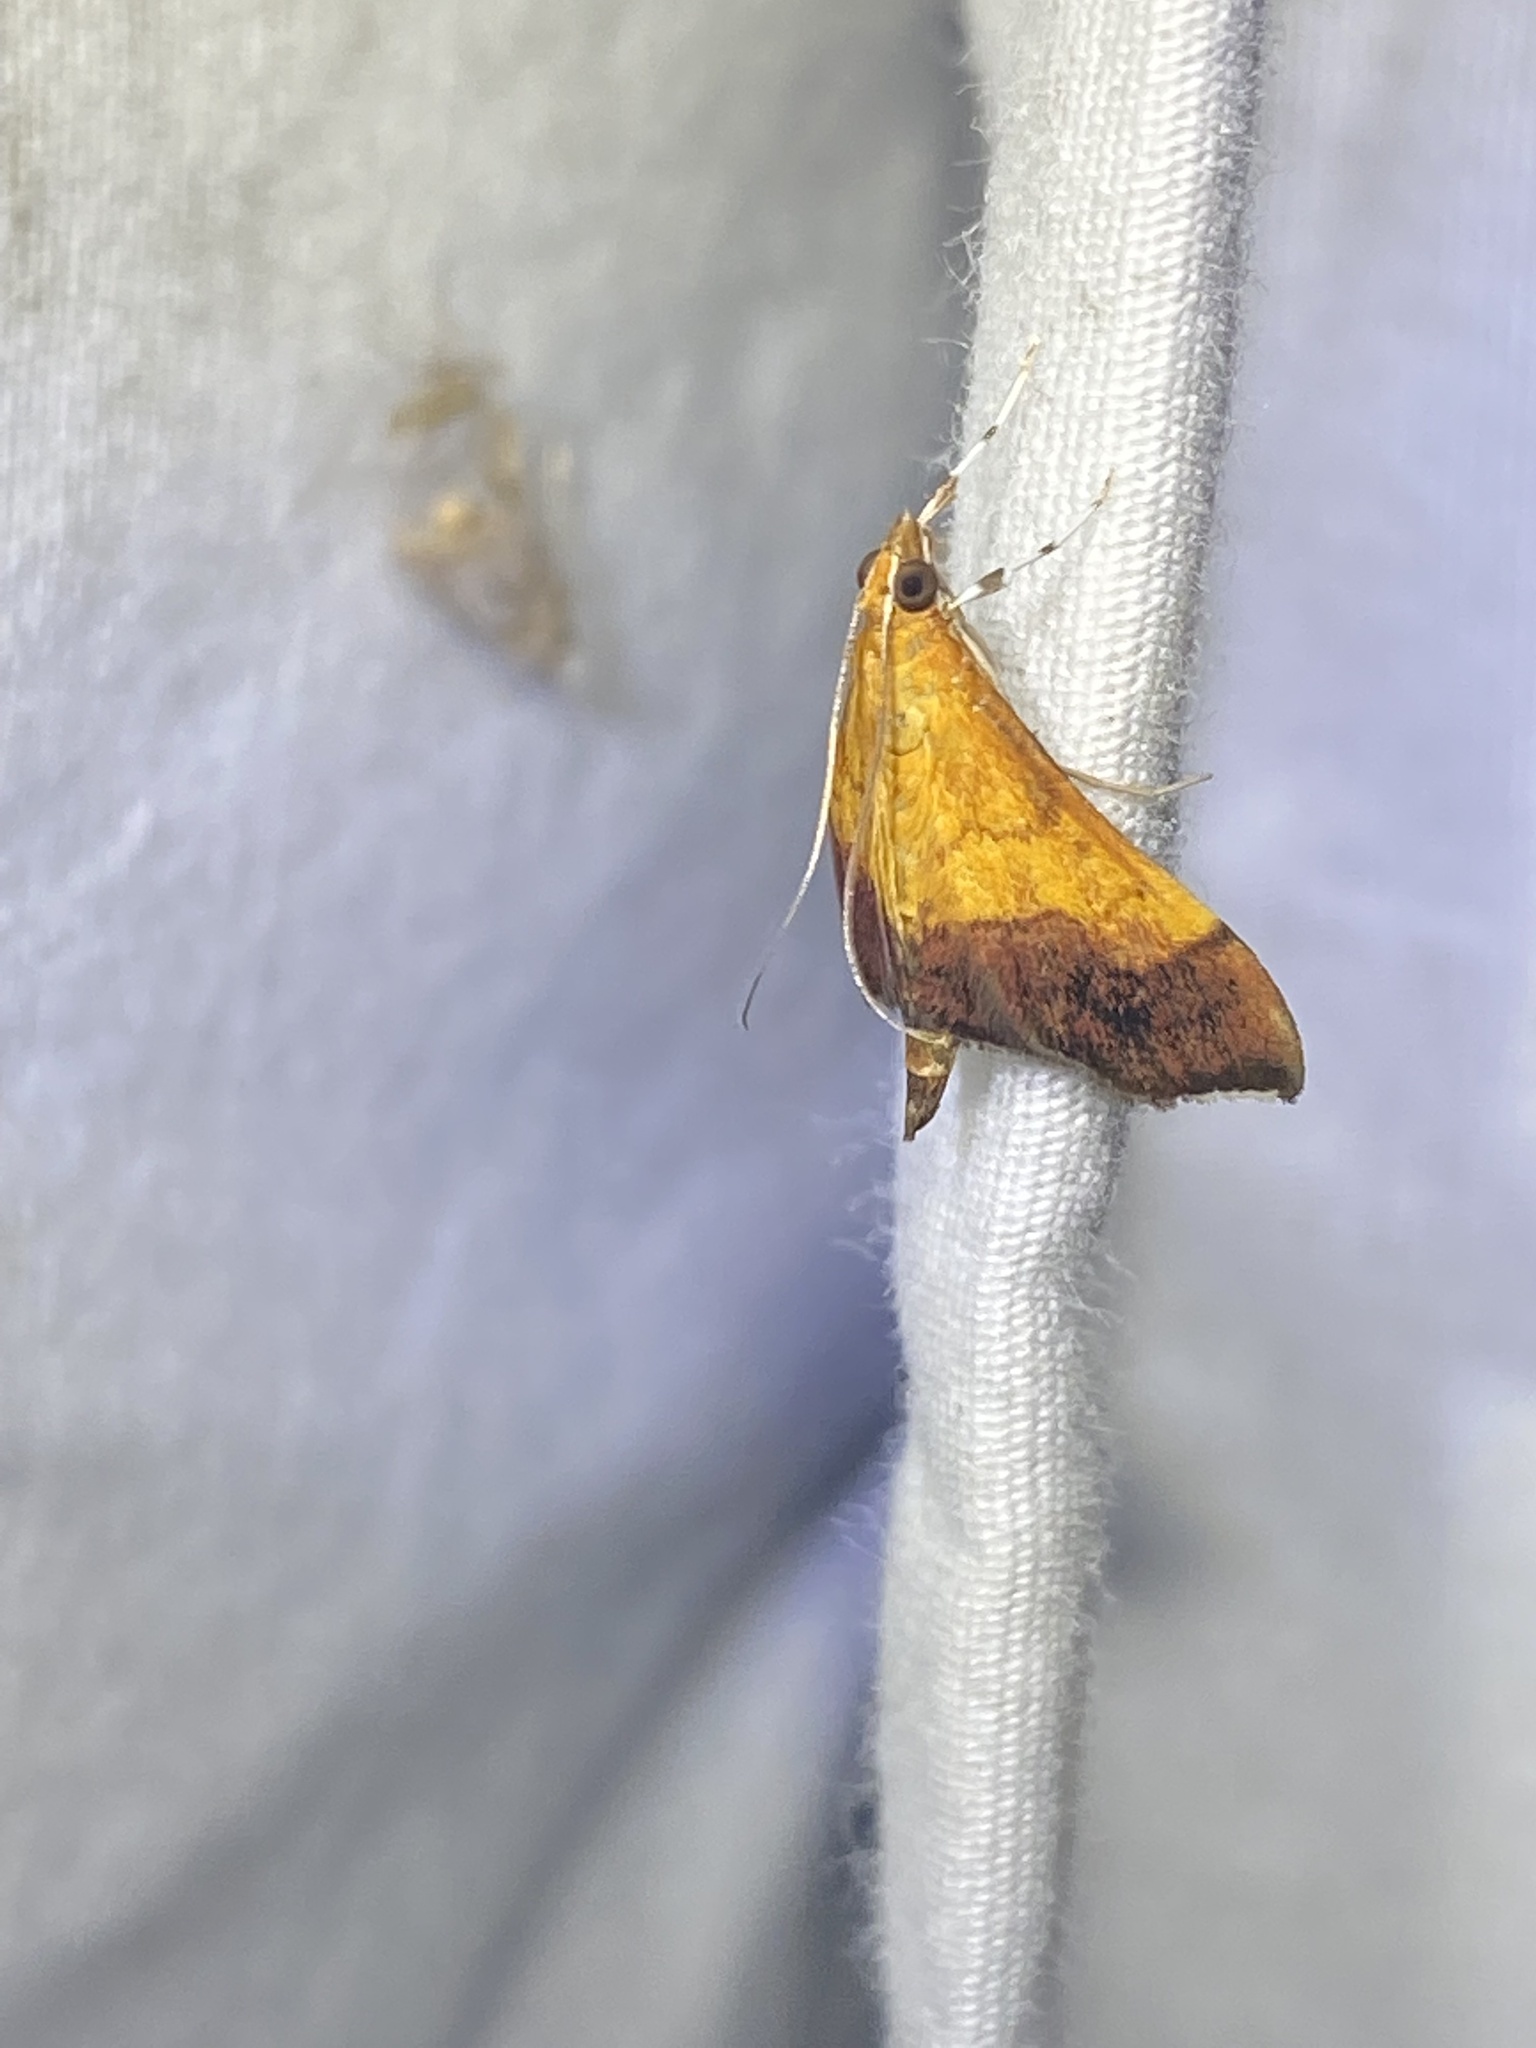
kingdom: Animalia
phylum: Arthropoda
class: Insecta
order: Lepidoptera
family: Crambidae
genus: Pyrausta
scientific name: Pyrausta bicoloralis
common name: Bicolored pyrausta moth
